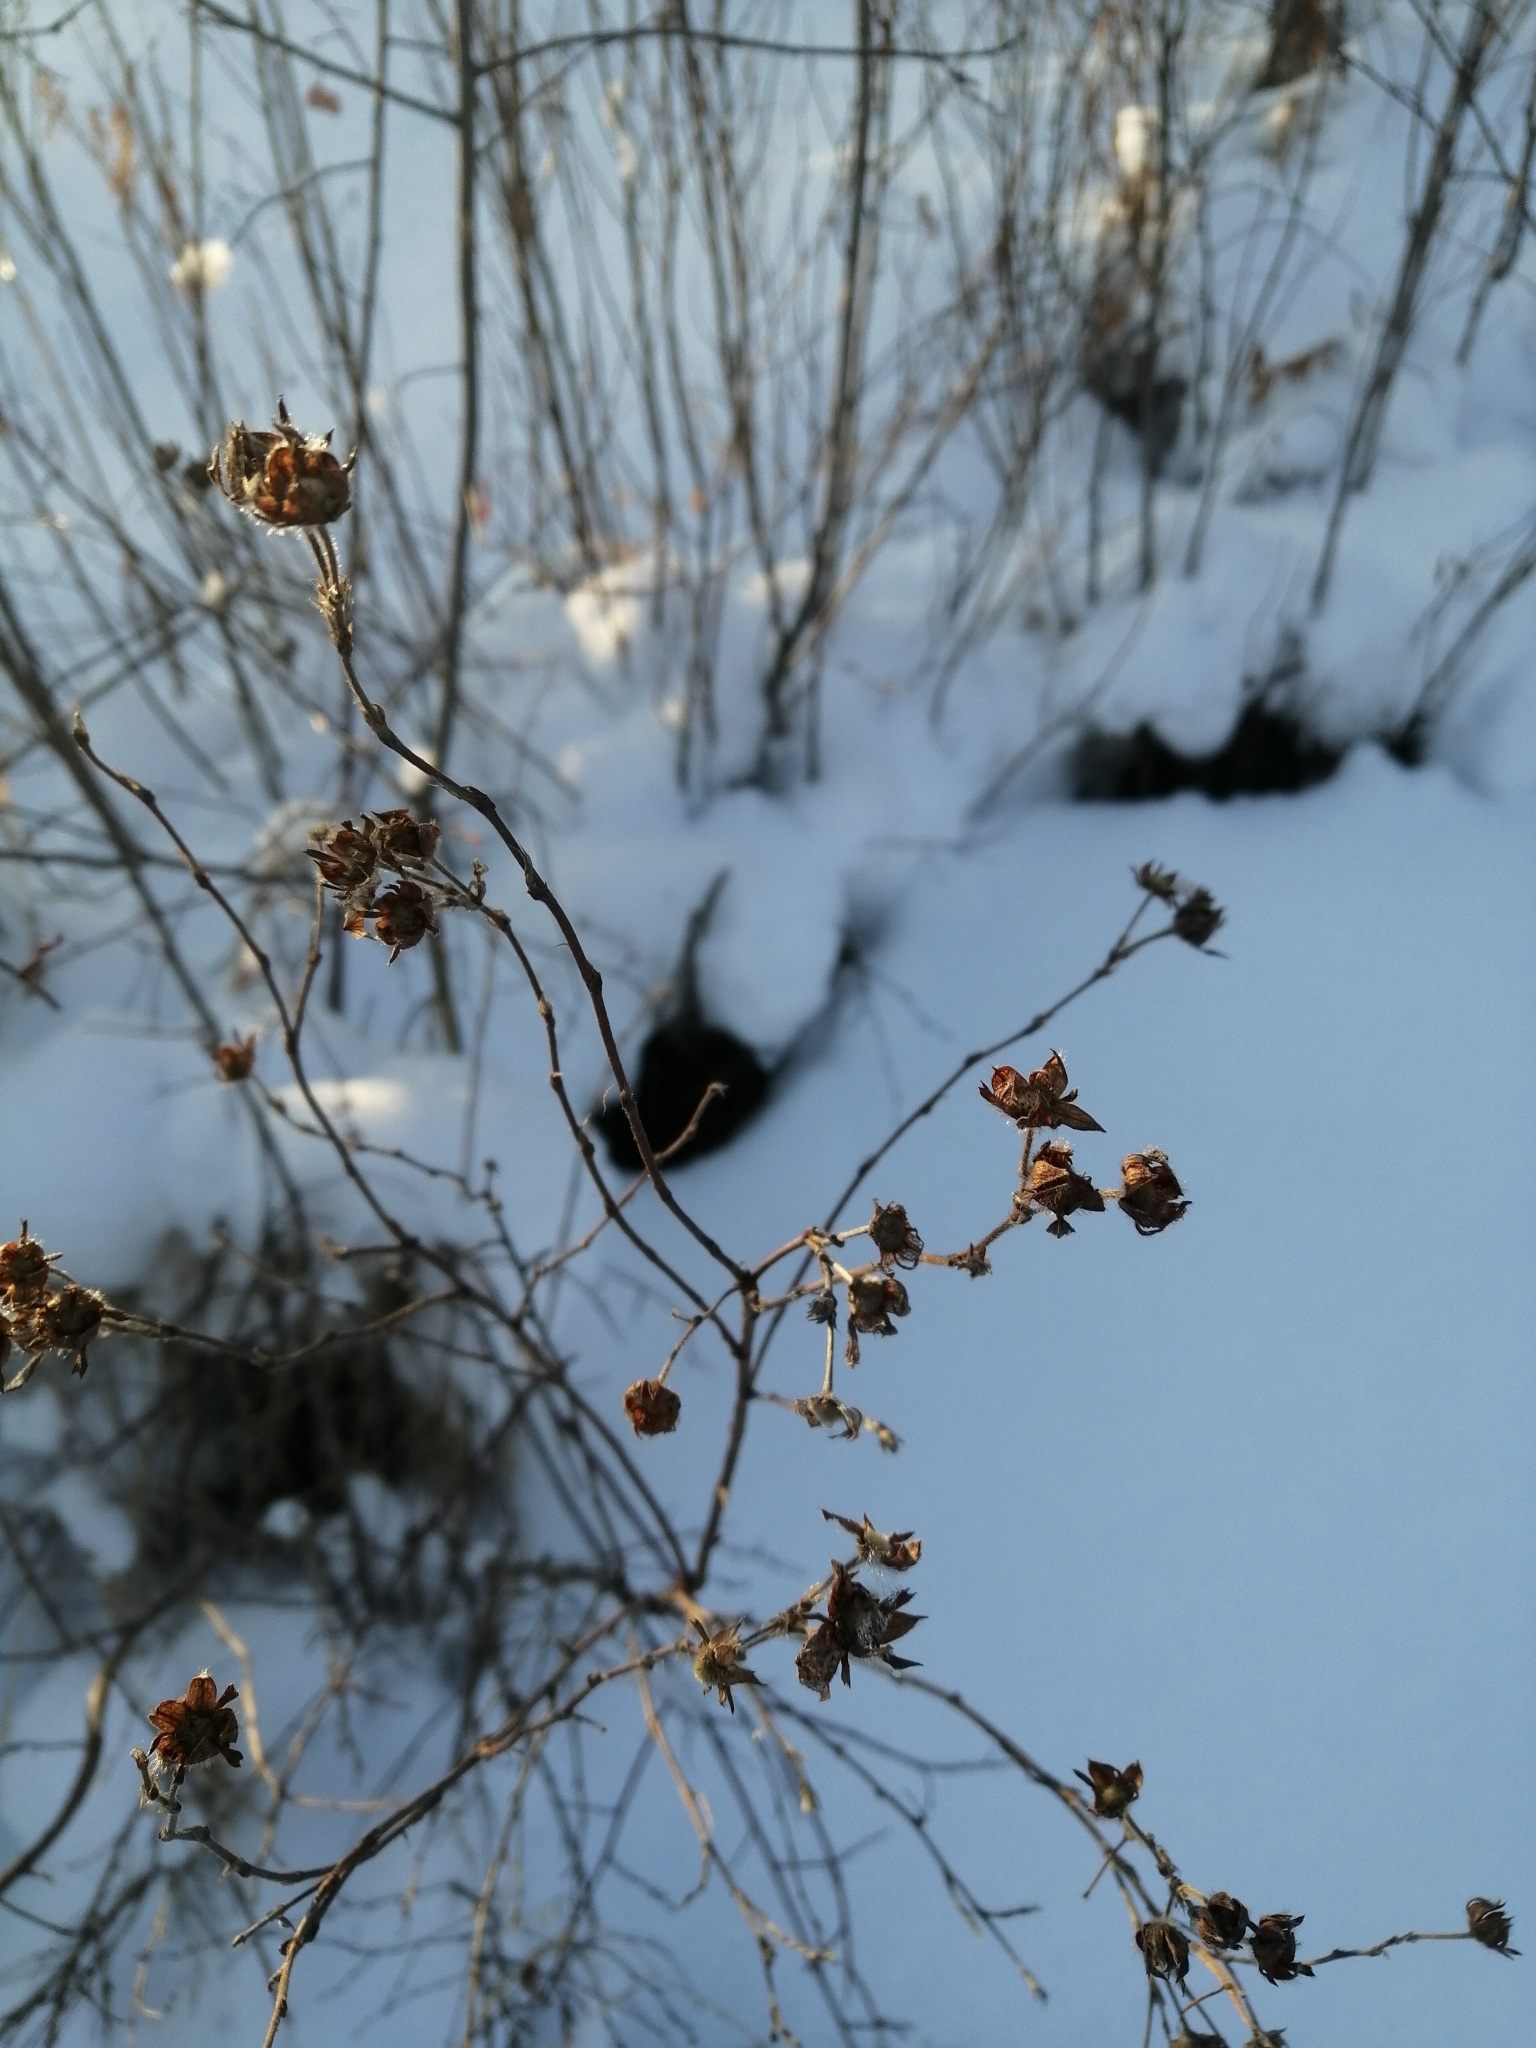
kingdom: Plantae
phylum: Tracheophyta
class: Magnoliopsida
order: Rosales
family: Rosaceae
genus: Dasiphora
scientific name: Dasiphora fruticosa
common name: Shrubby cinquefoil
